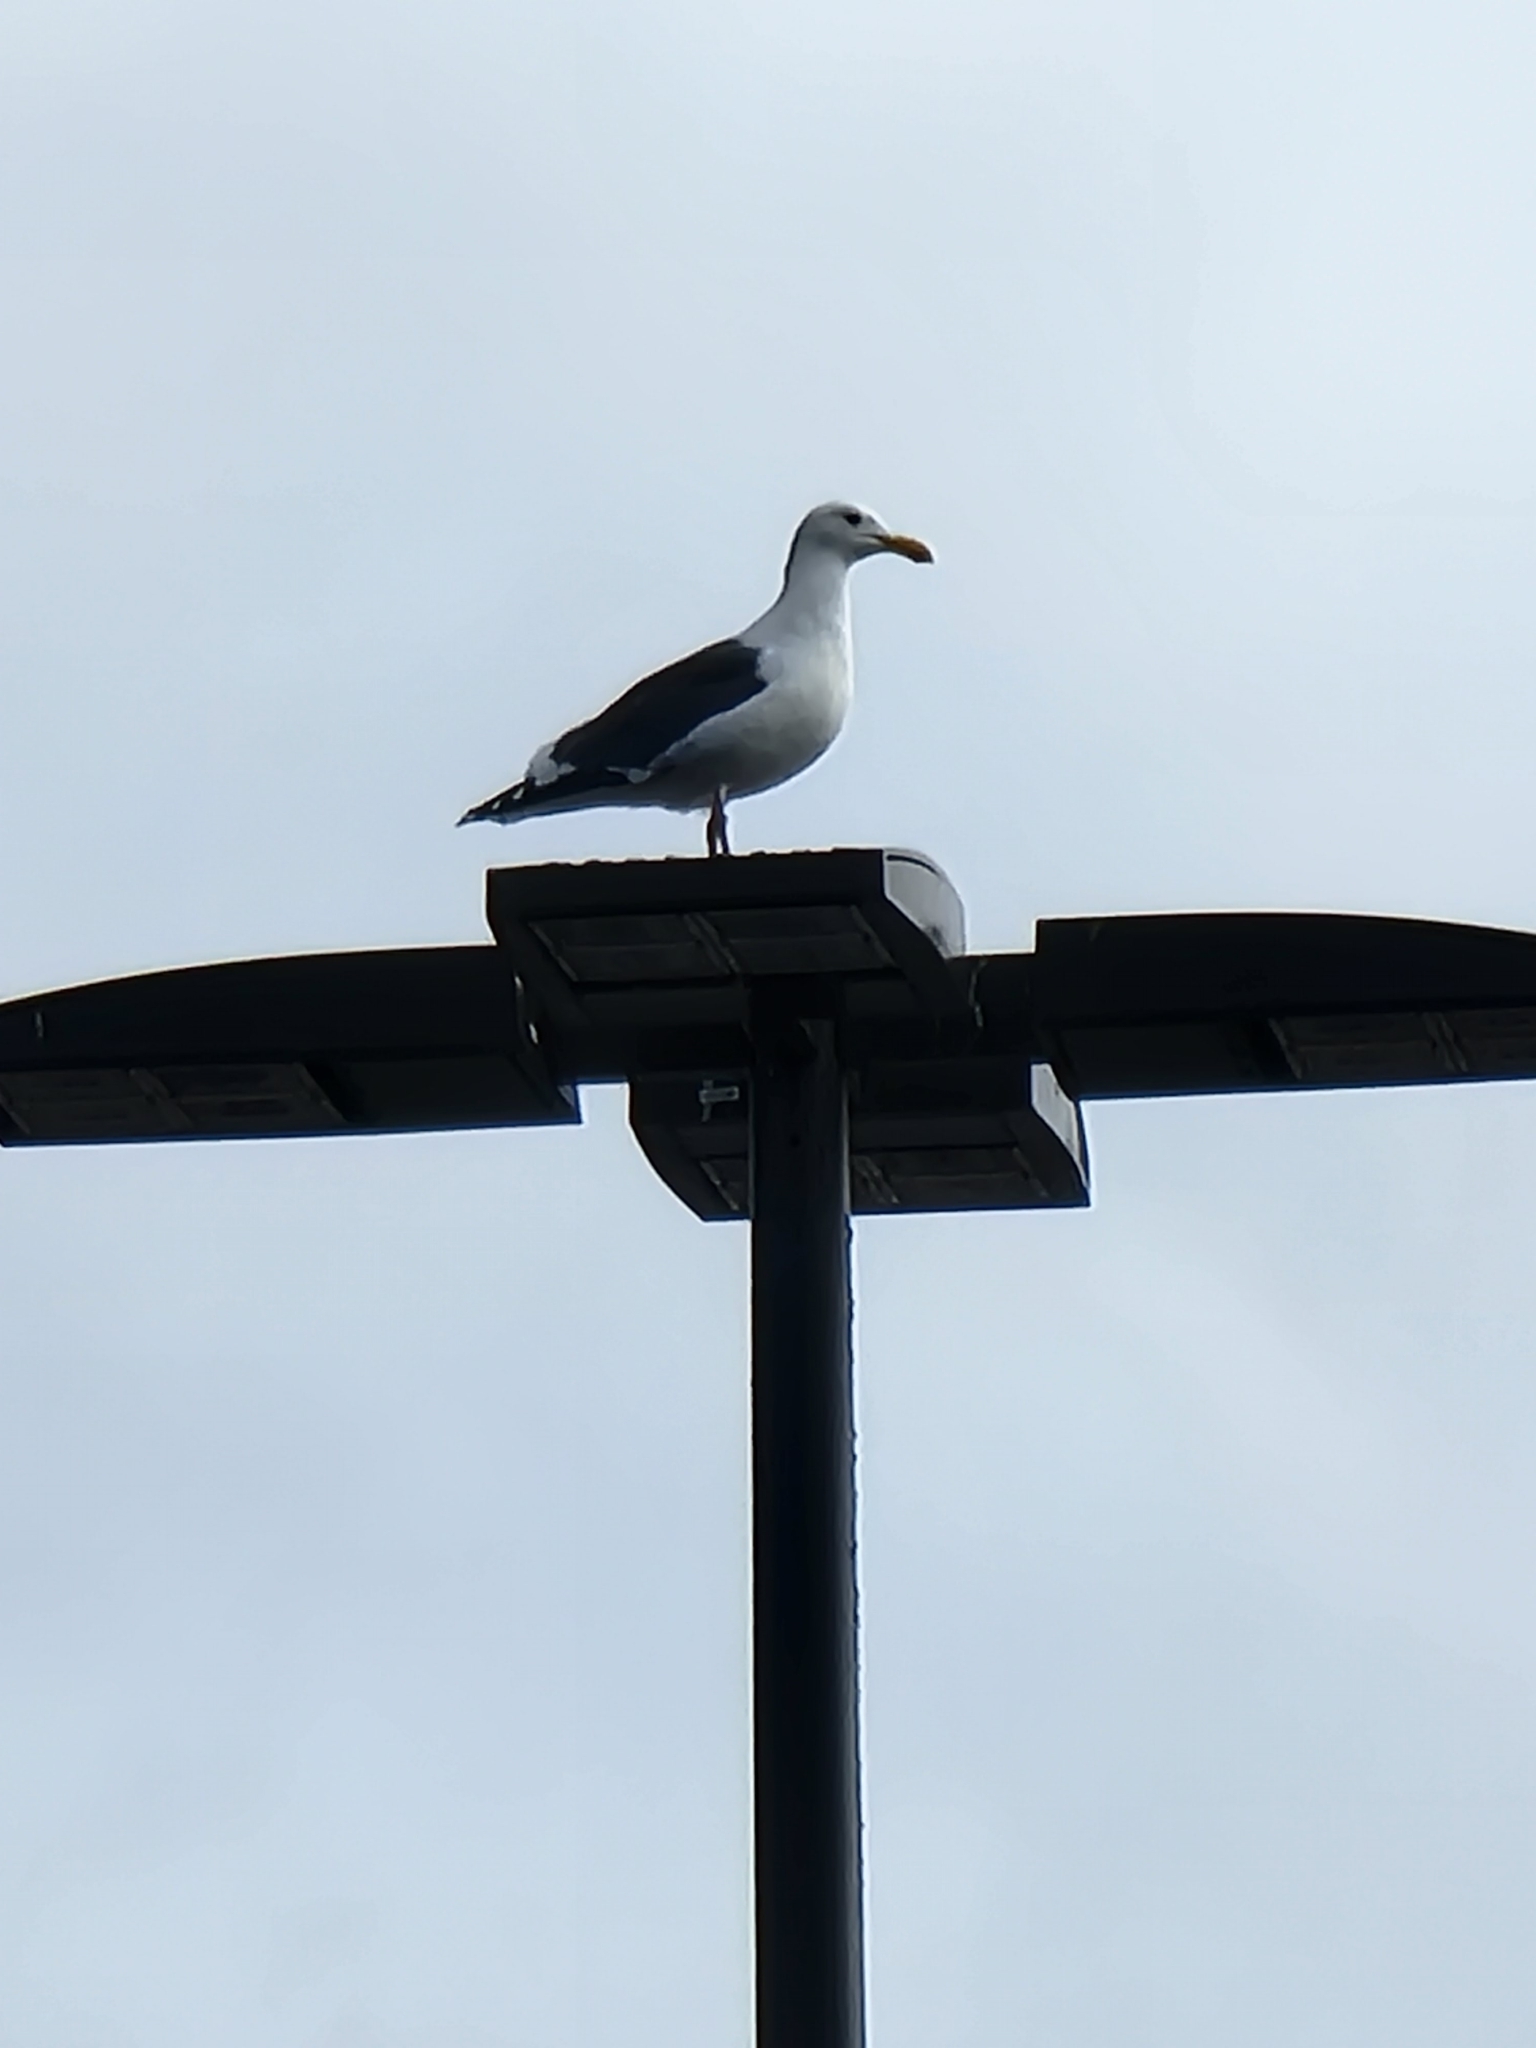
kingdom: Animalia
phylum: Chordata
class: Aves
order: Charadriiformes
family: Laridae
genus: Larus
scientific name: Larus occidentalis
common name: Western gull
